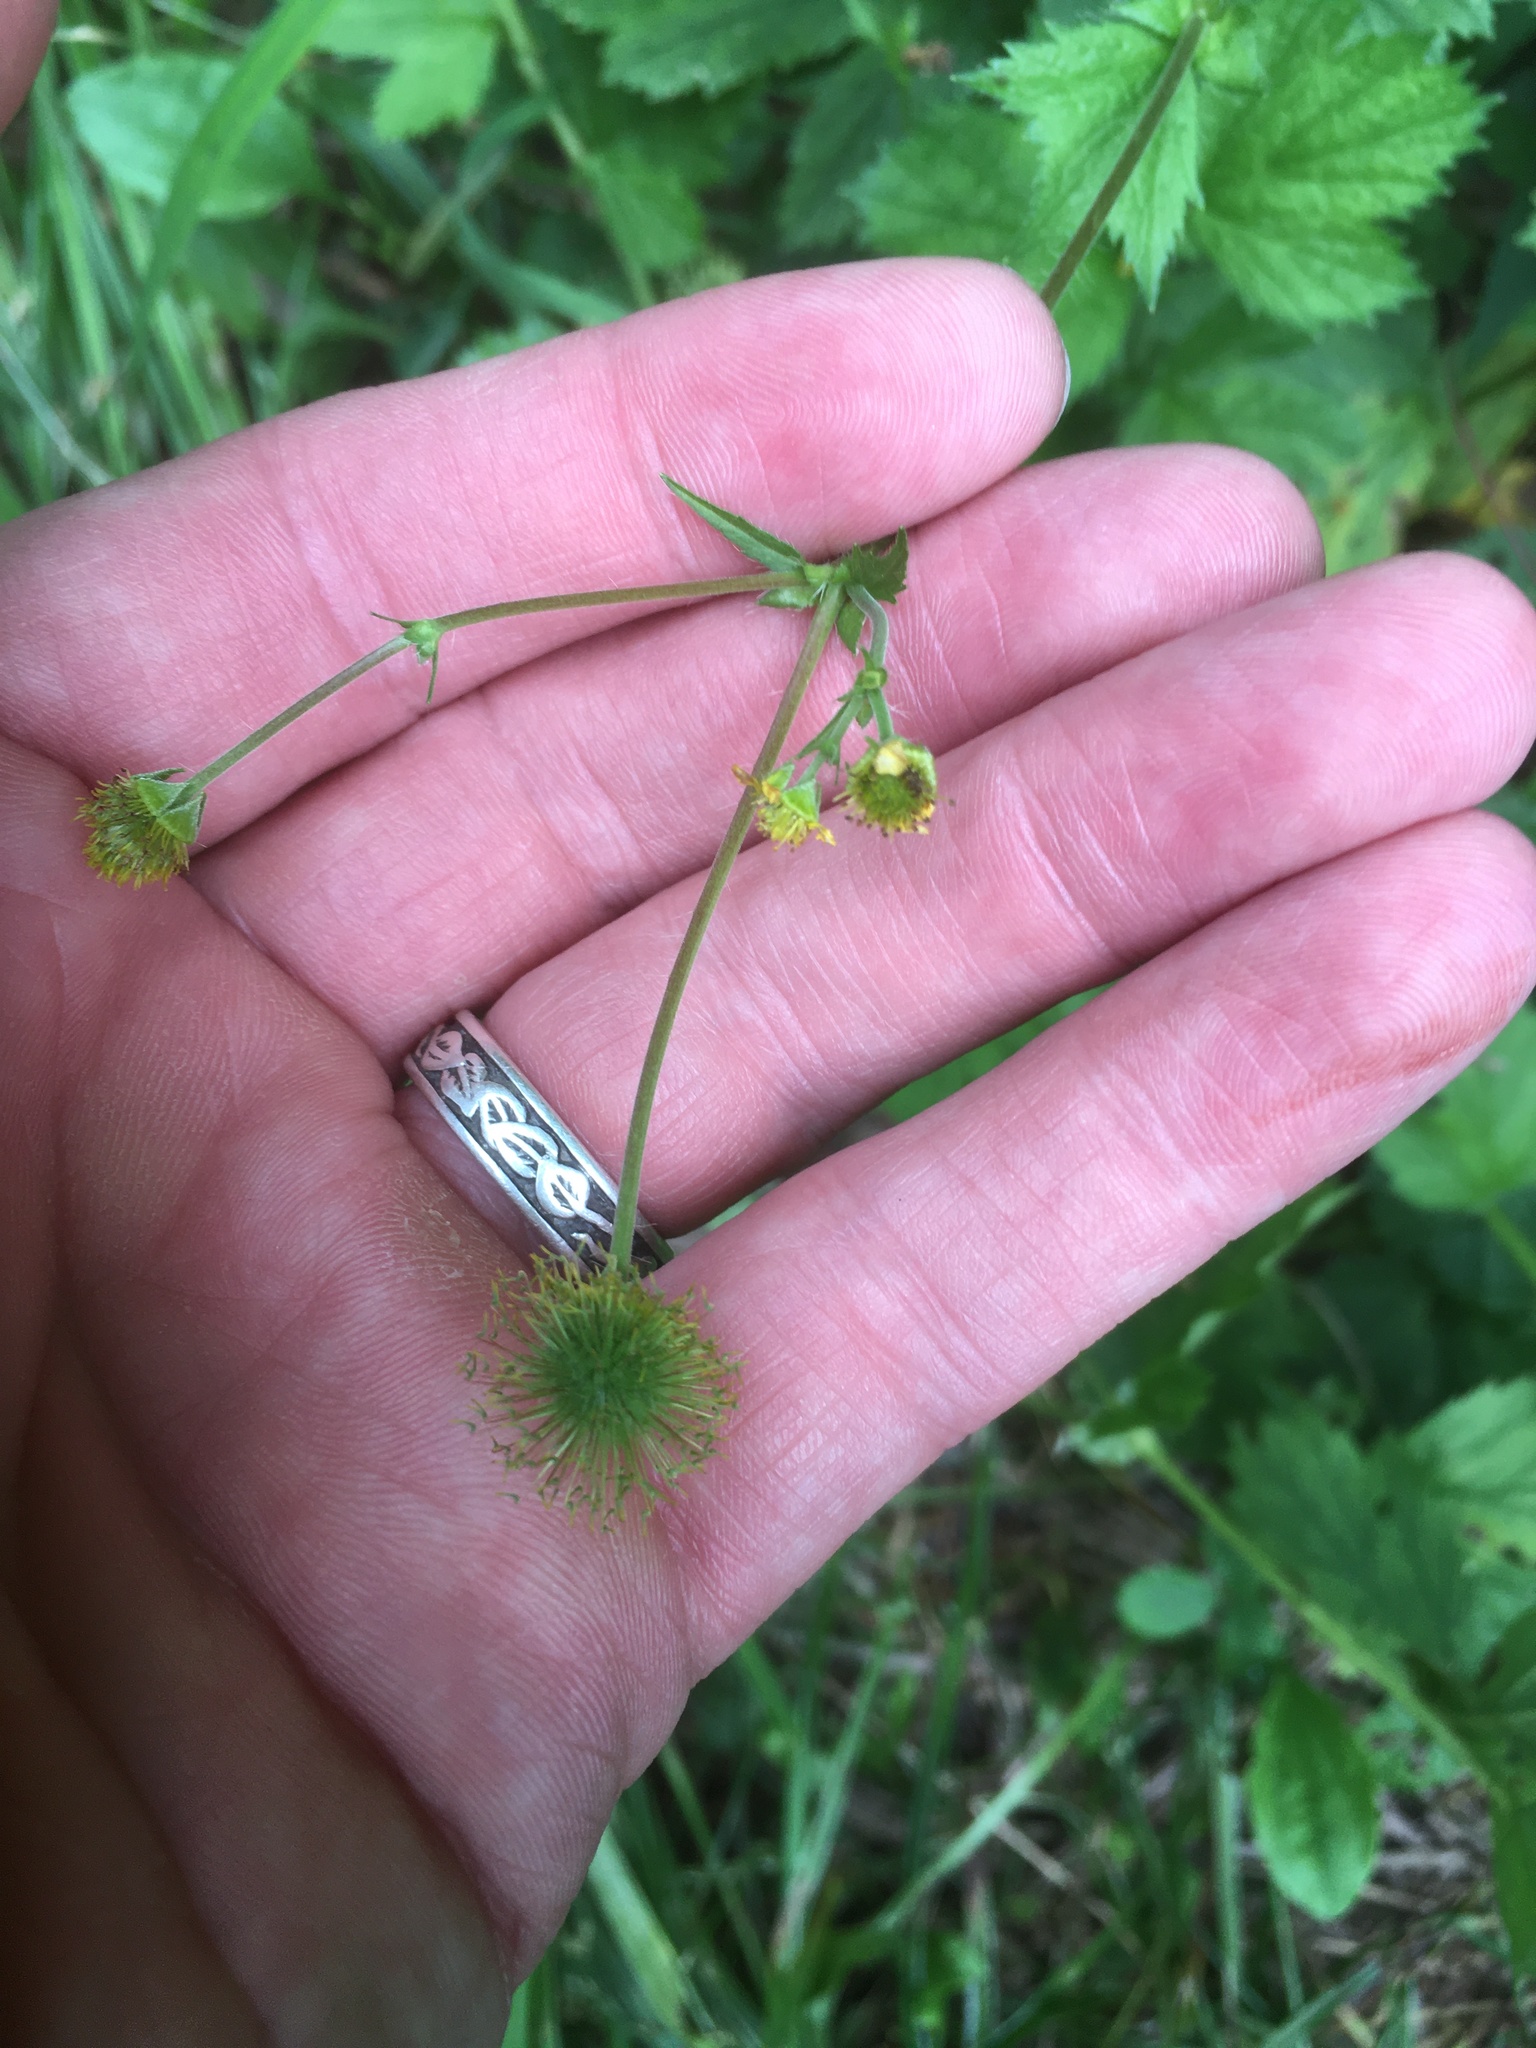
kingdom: Plantae
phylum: Tracheophyta
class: Magnoliopsida
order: Rosales
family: Rosaceae
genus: Geum
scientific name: Geum macrophyllum
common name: Large-leaved avens
